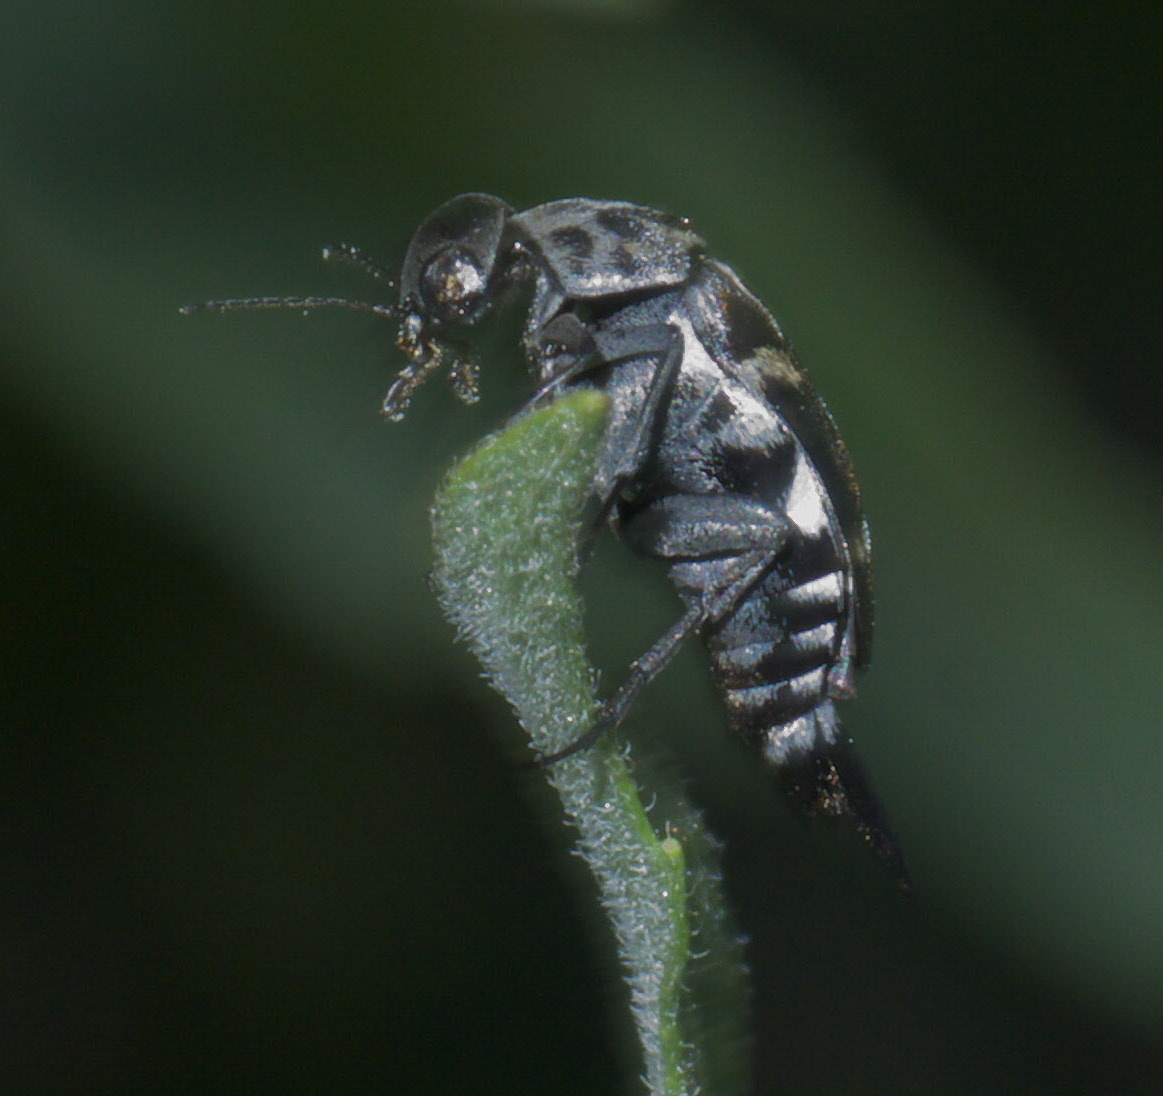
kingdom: Animalia
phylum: Arthropoda
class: Insecta
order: Coleoptera
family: Mordellidae
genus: Hoshihananomia
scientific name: Hoshihananomia octopunctata
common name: Eight-spotted tumbling flower beetle
